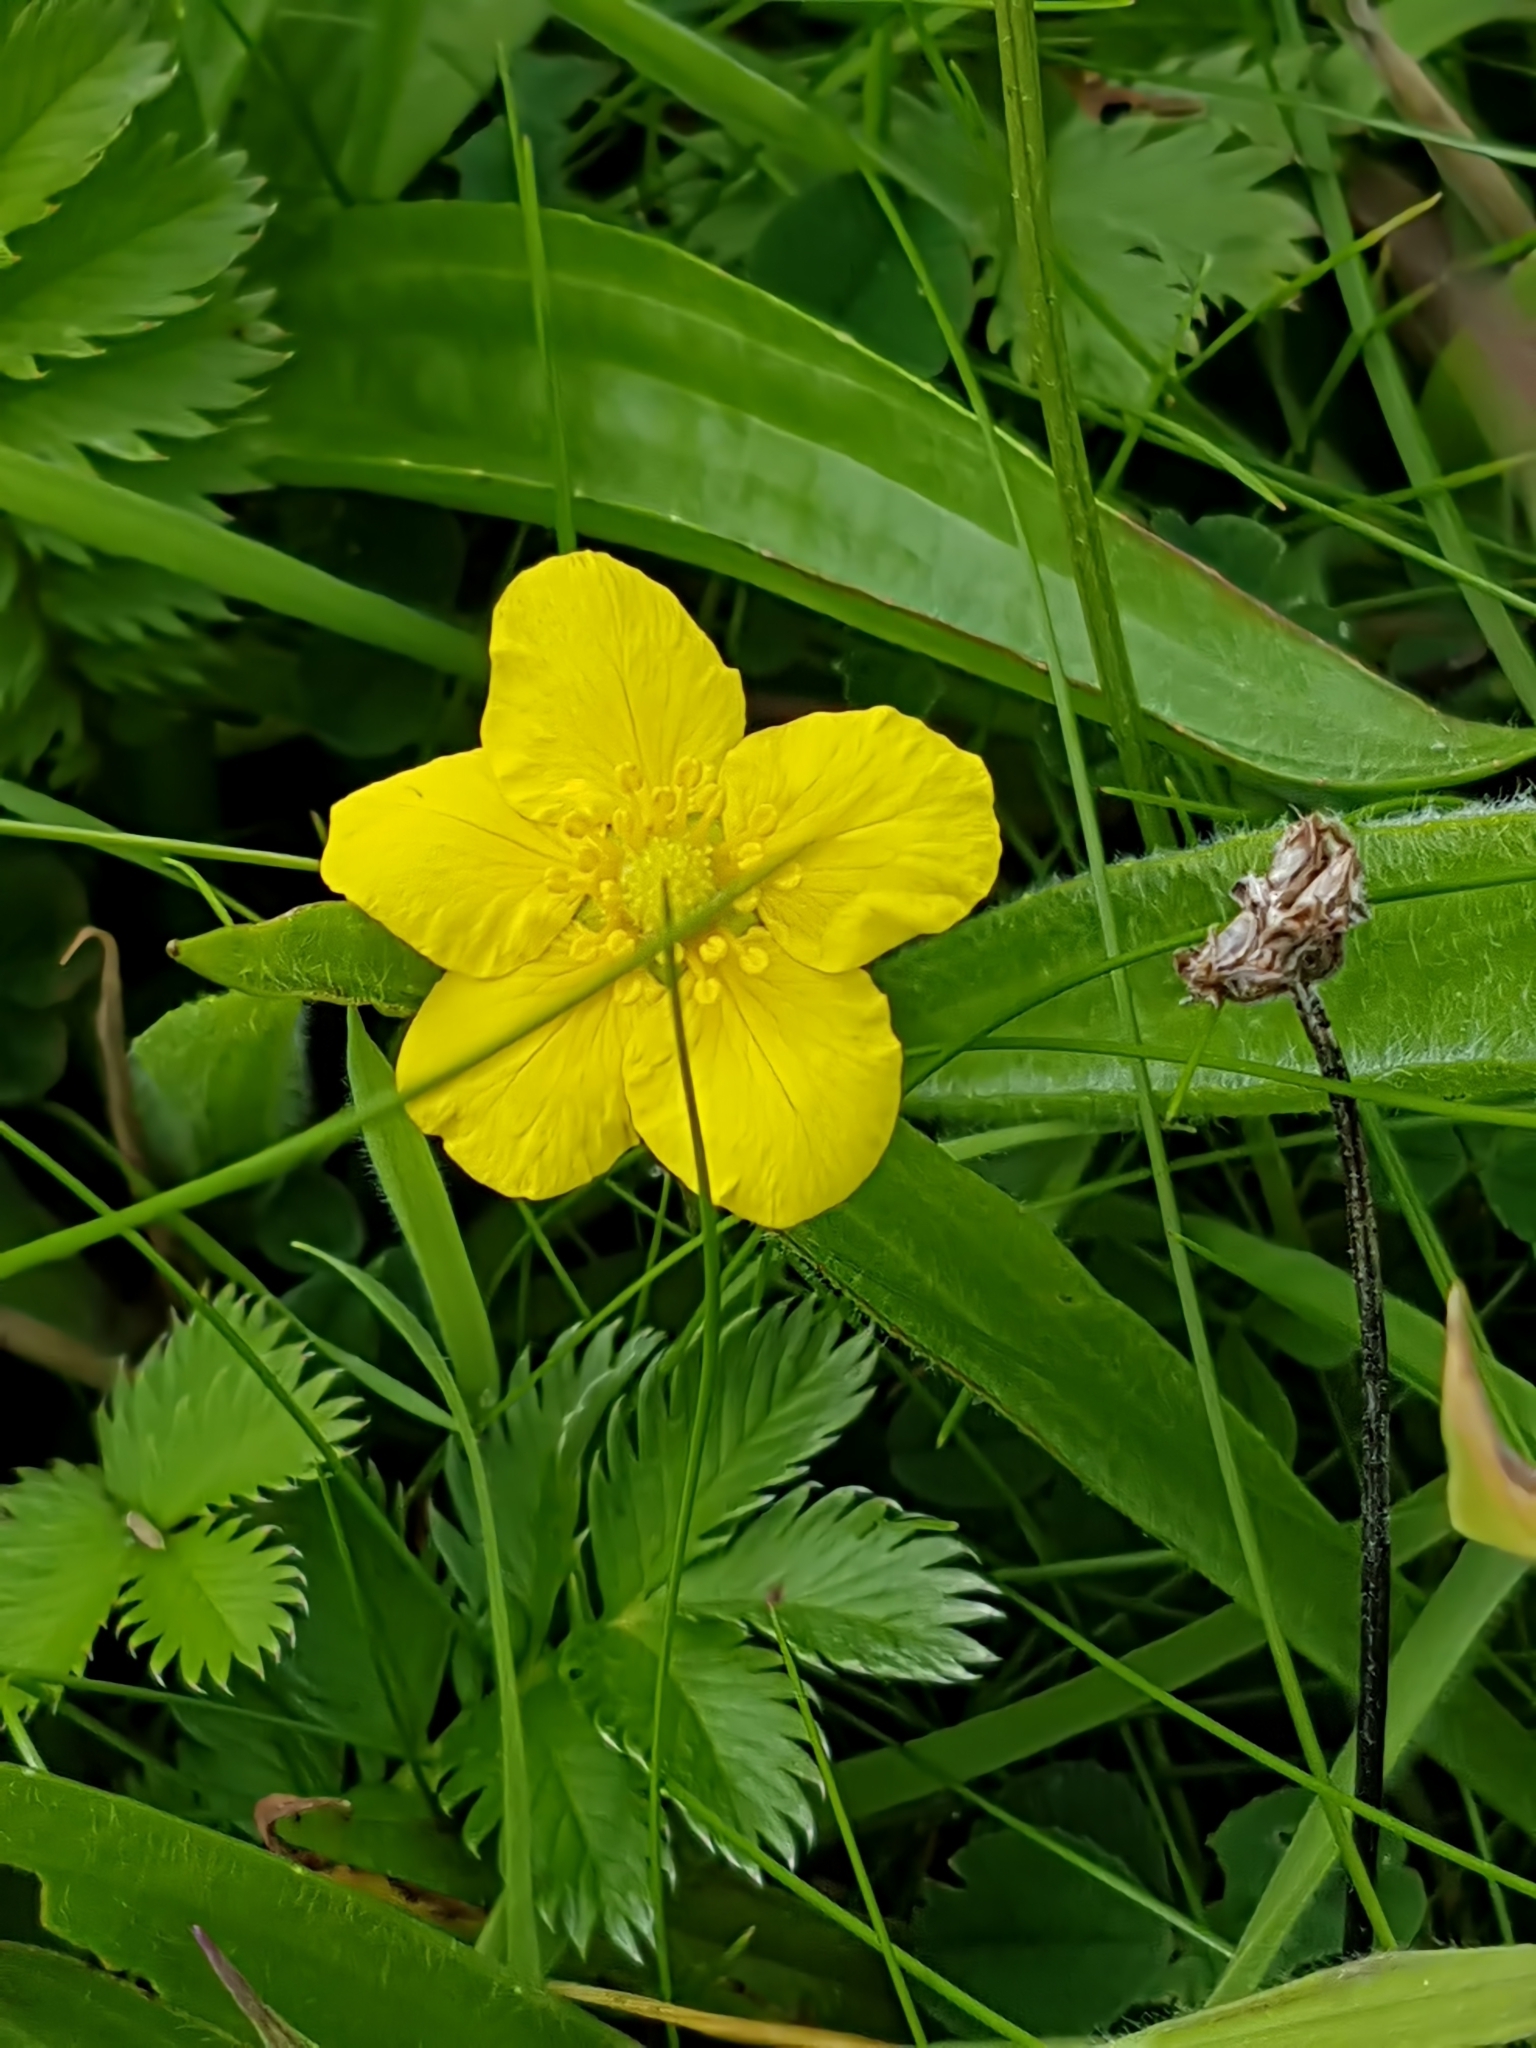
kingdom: Plantae
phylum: Tracheophyta
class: Magnoliopsida
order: Rosales
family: Rosaceae
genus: Argentina
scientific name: Argentina anserina
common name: Common silverweed
